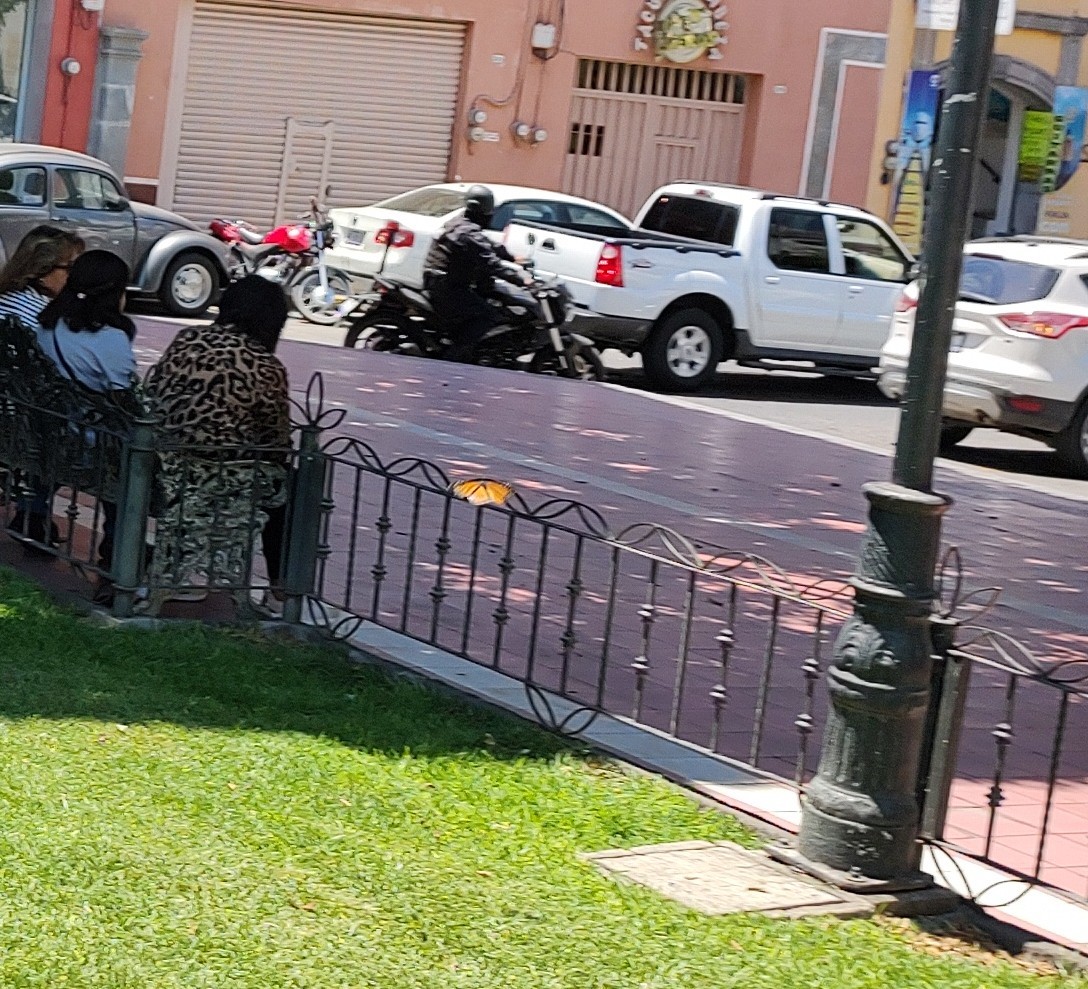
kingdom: Animalia
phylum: Arthropoda
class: Insecta
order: Lepidoptera
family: Nymphalidae
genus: Danaus
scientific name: Danaus plexippus
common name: Monarch
